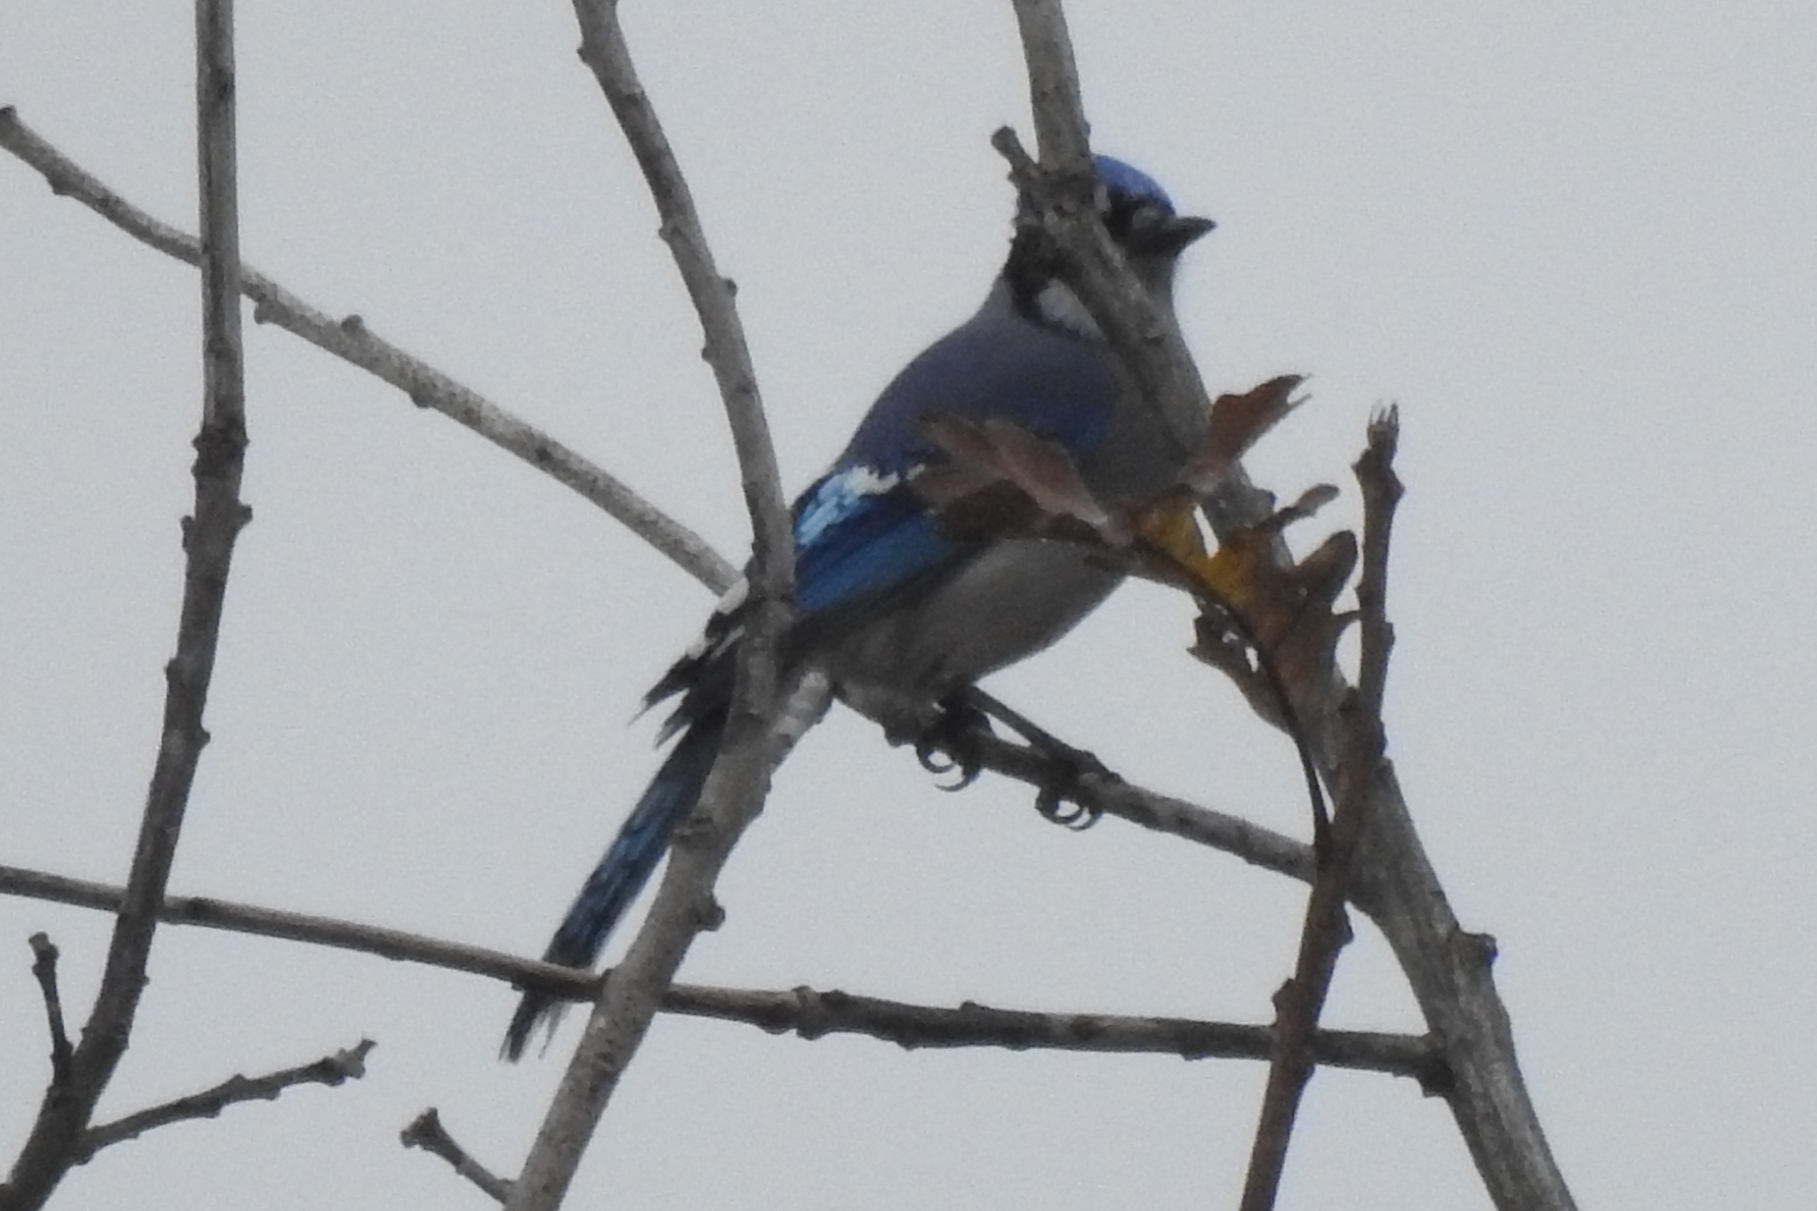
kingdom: Animalia
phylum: Chordata
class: Aves
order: Passeriformes
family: Corvidae
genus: Cyanocitta
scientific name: Cyanocitta cristata
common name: Blue jay
